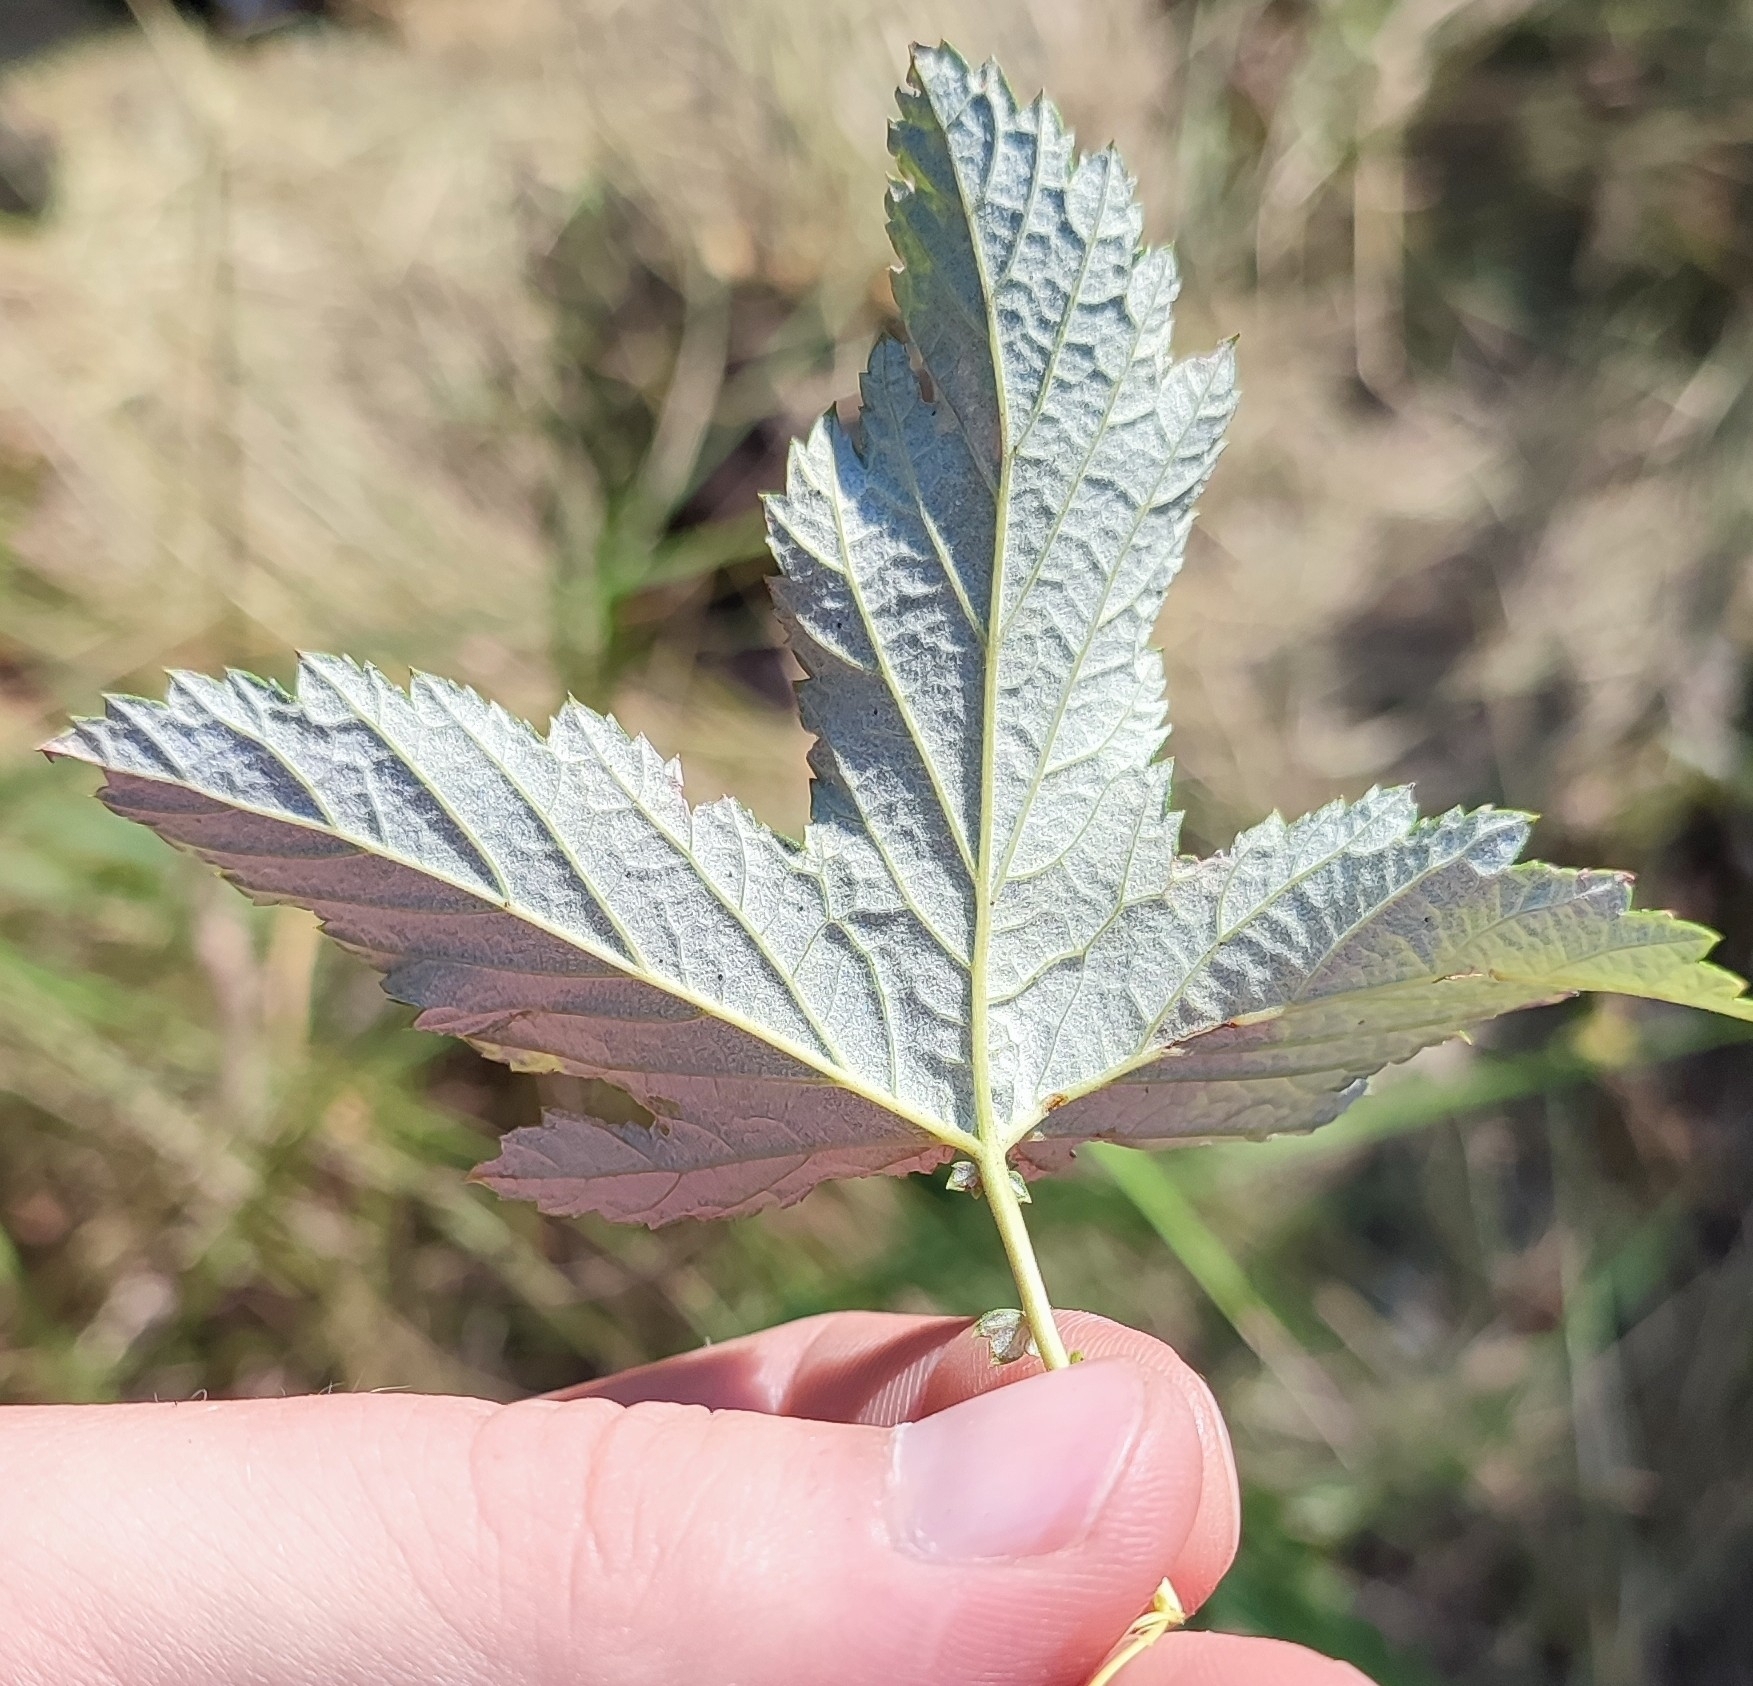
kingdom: Plantae
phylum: Tracheophyta
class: Magnoliopsida
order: Rosales
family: Rosaceae
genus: Filipendula
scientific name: Filipendula ulmaria
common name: Meadowsweet
